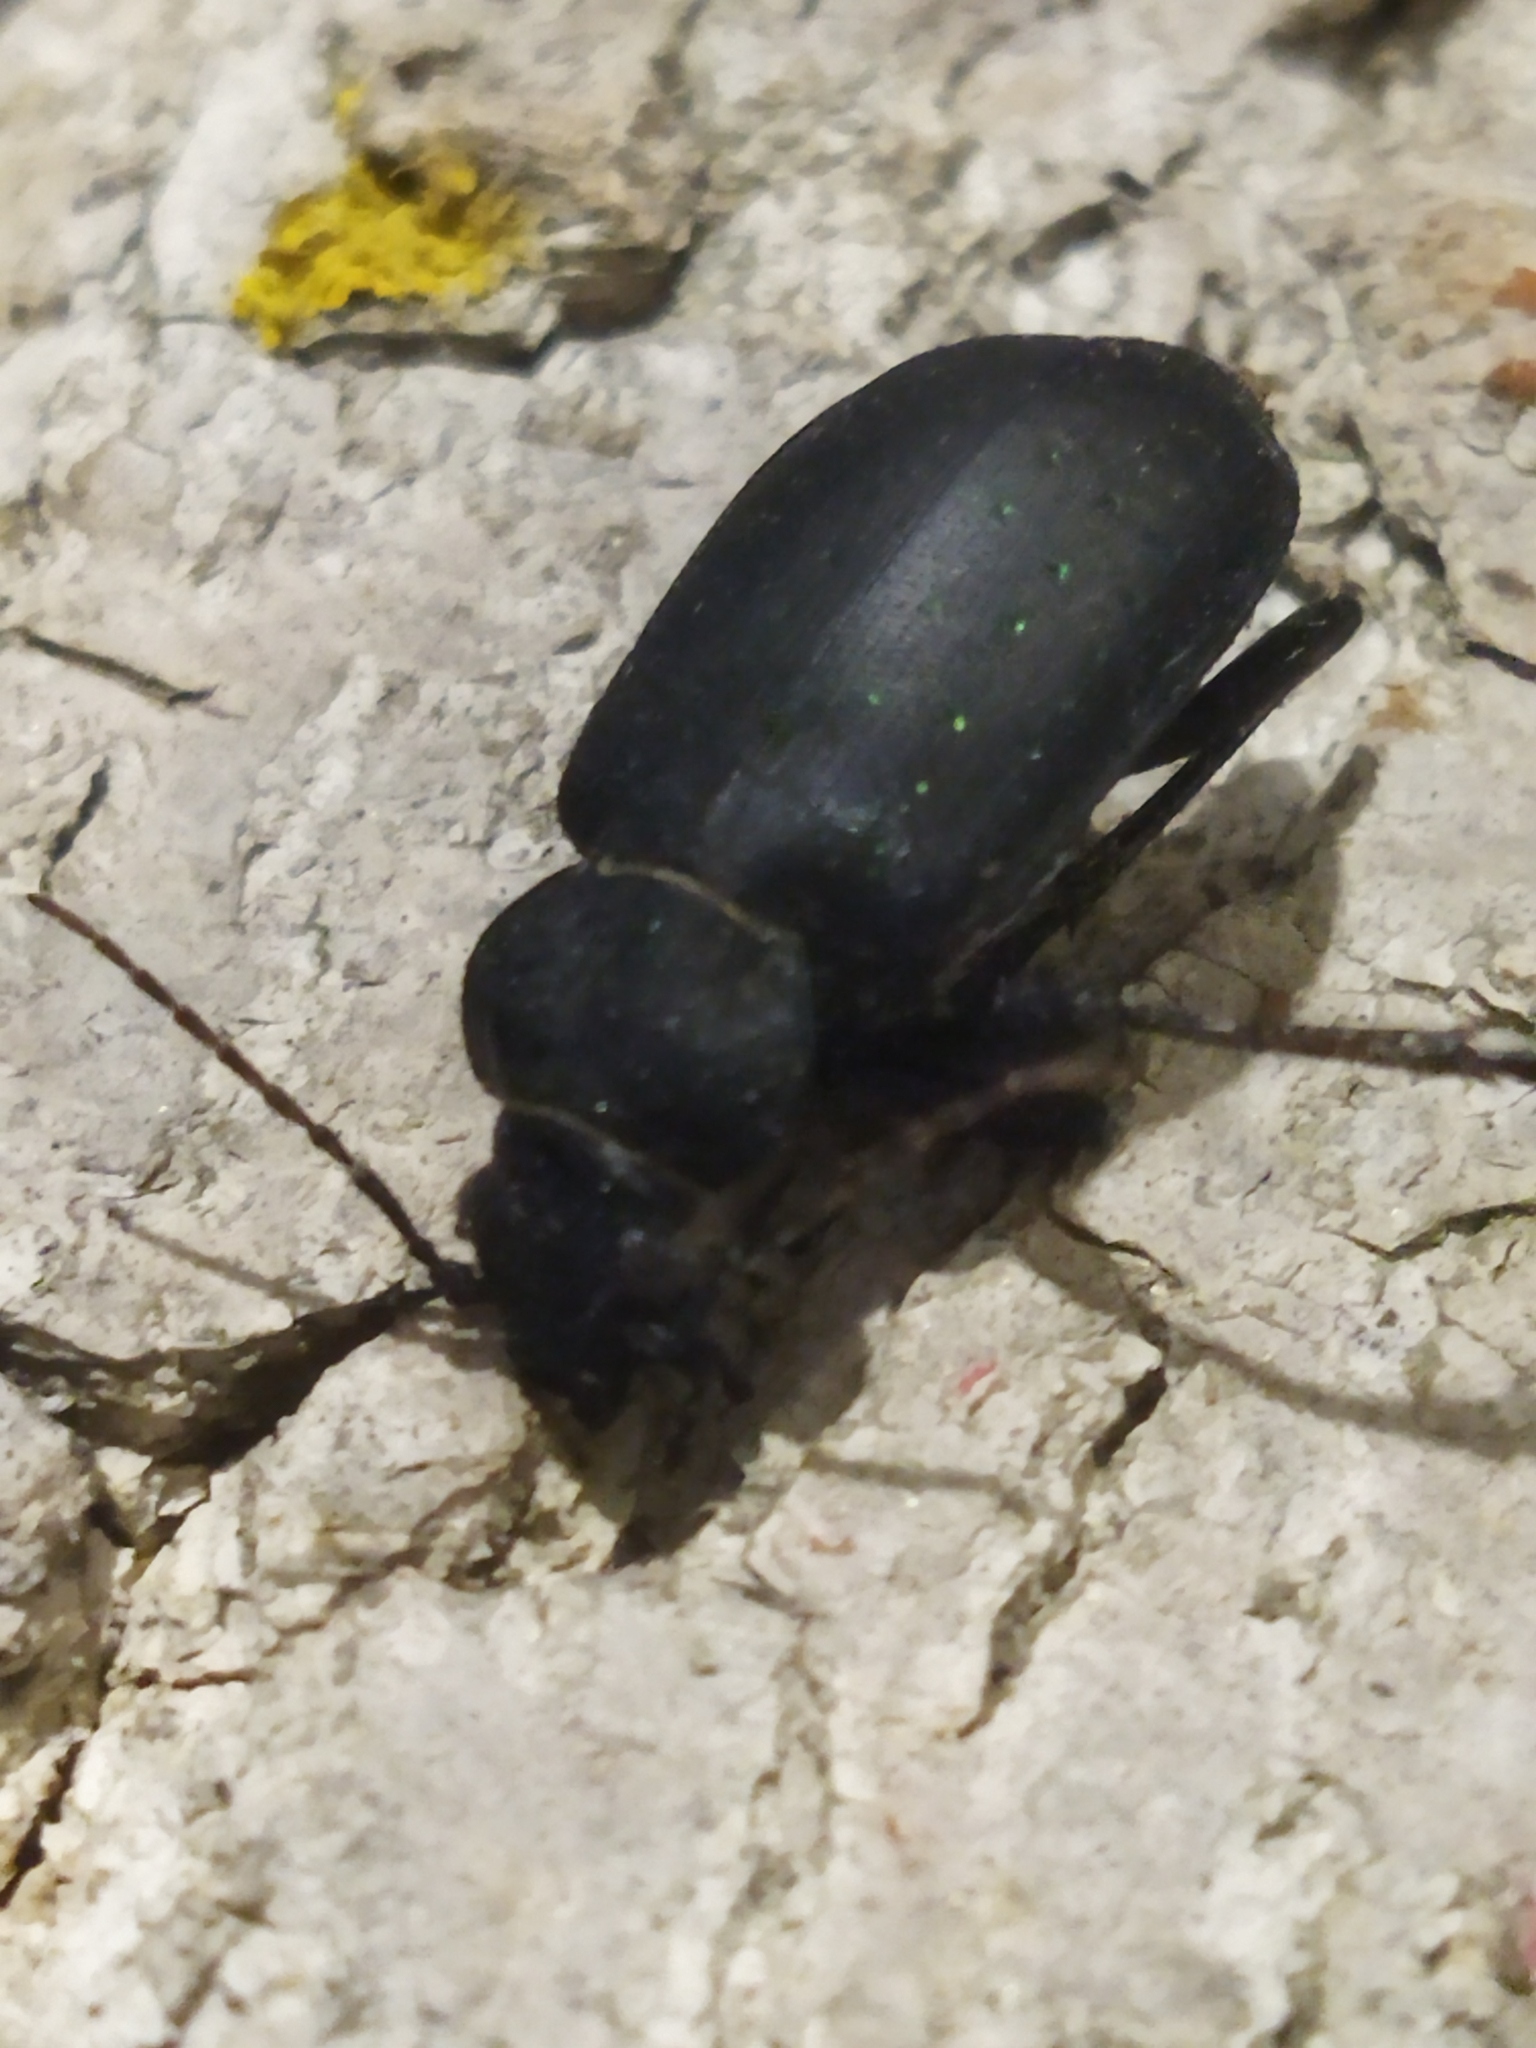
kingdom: Animalia
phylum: Arthropoda
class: Insecta
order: Coleoptera
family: Carabidae
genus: Calosoma
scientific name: Calosoma maderae
